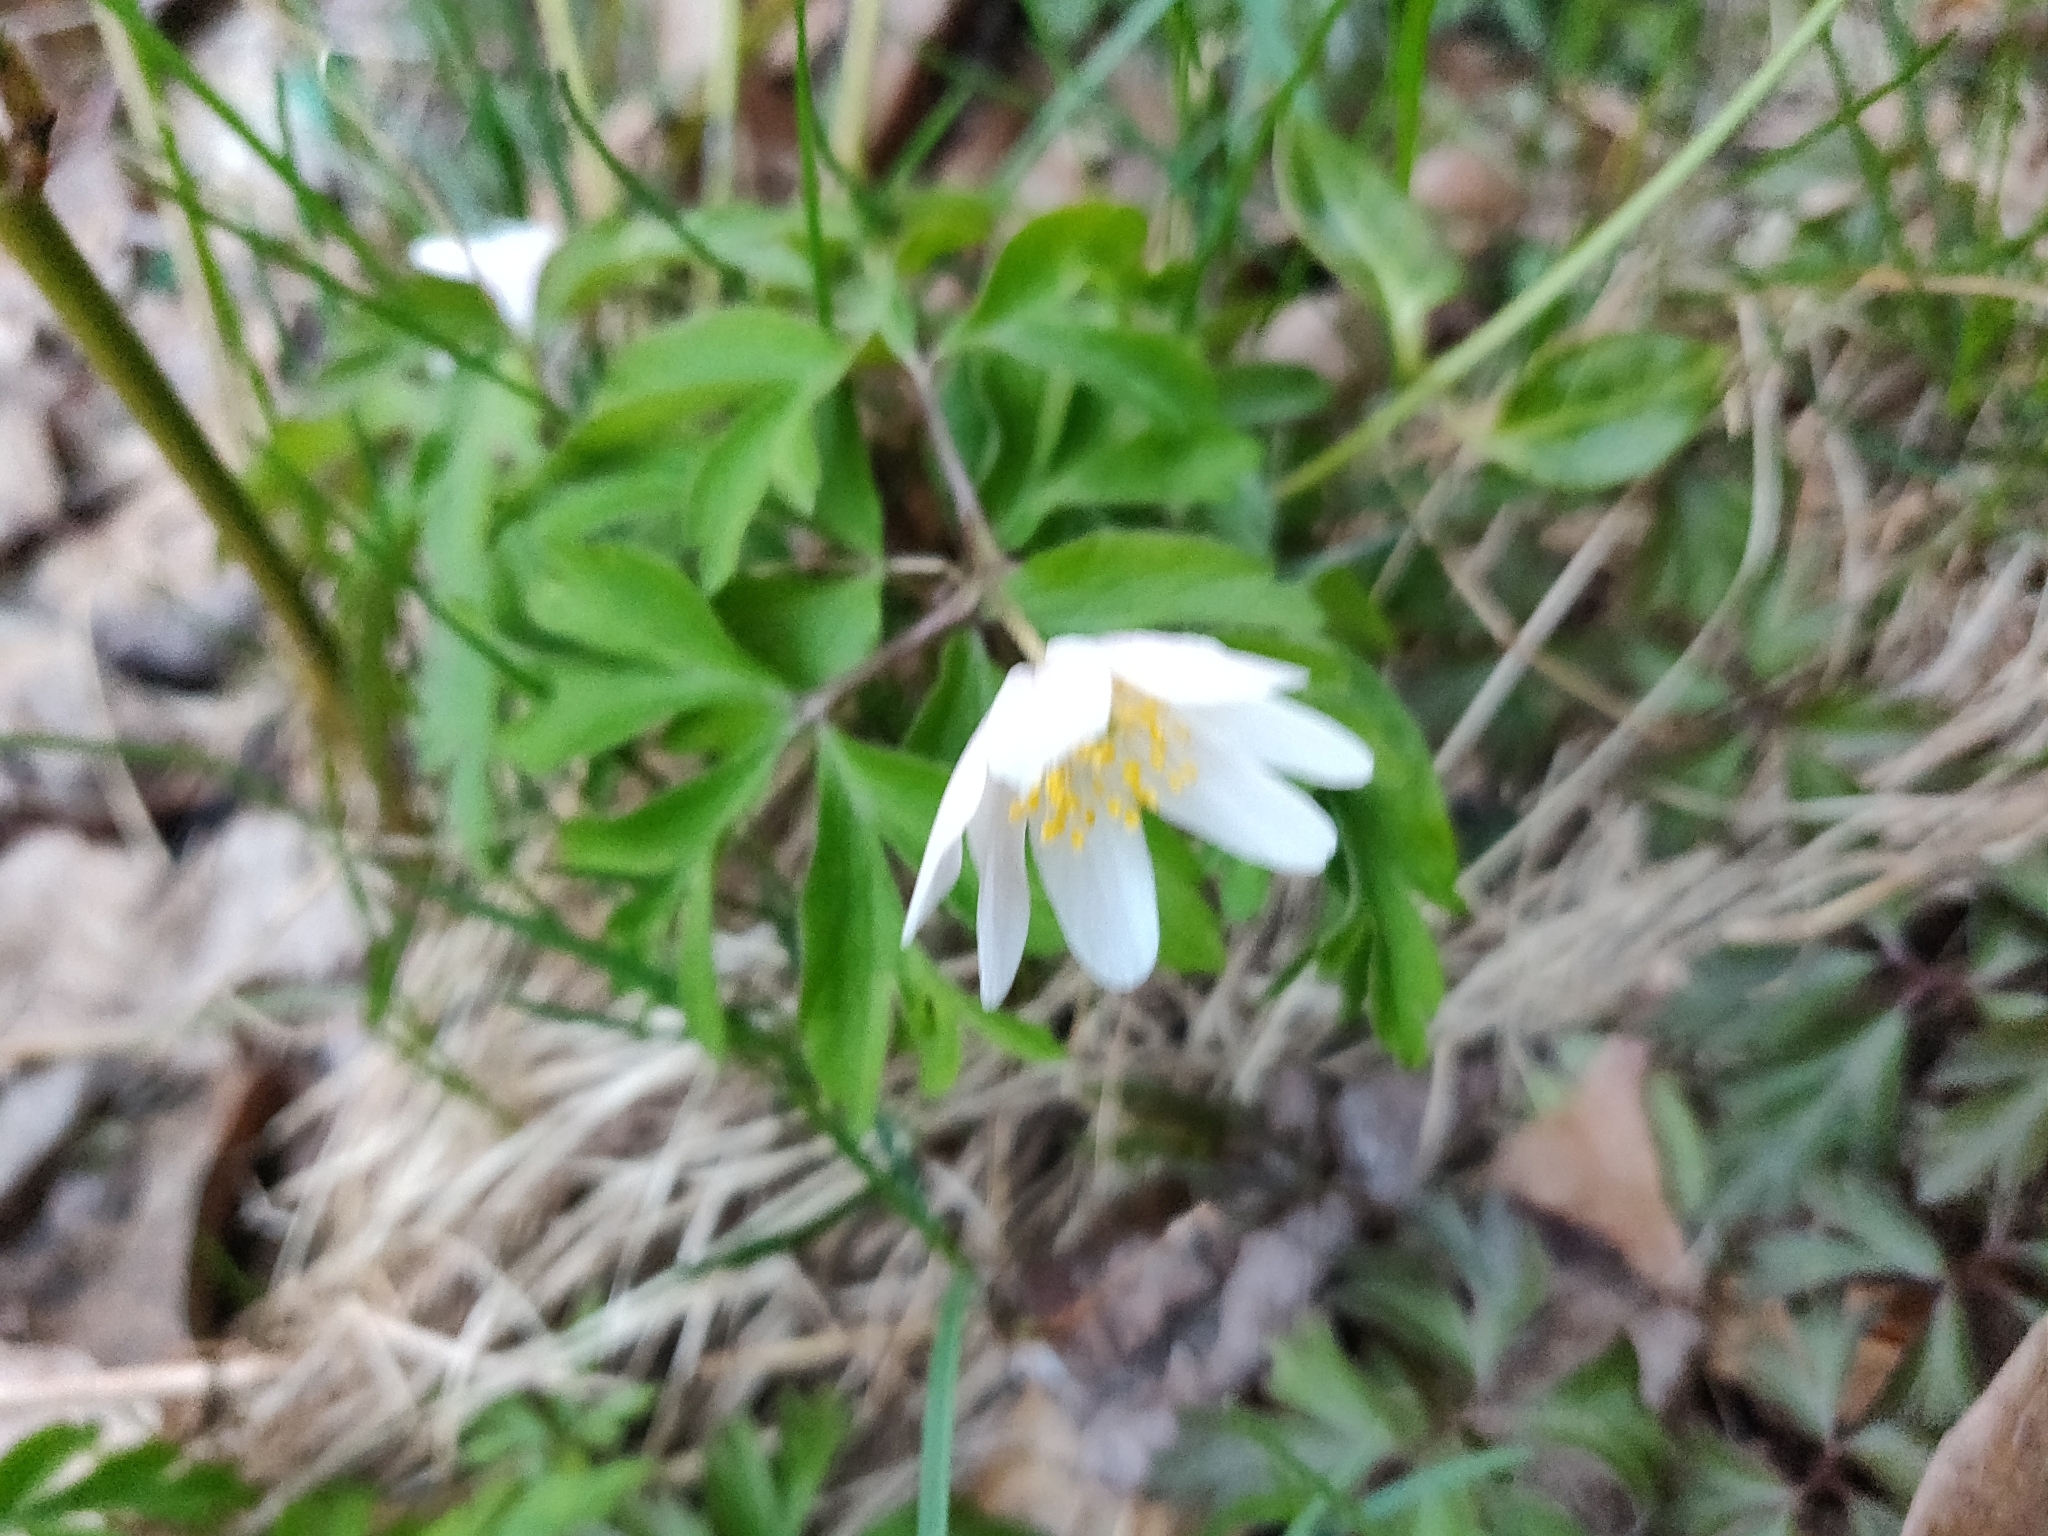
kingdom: Plantae
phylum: Tracheophyta
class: Magnoliopsida
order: Ranunculales
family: Ranunculaceae
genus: Anemone
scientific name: Anemone nemorosa
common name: Wood anemone
